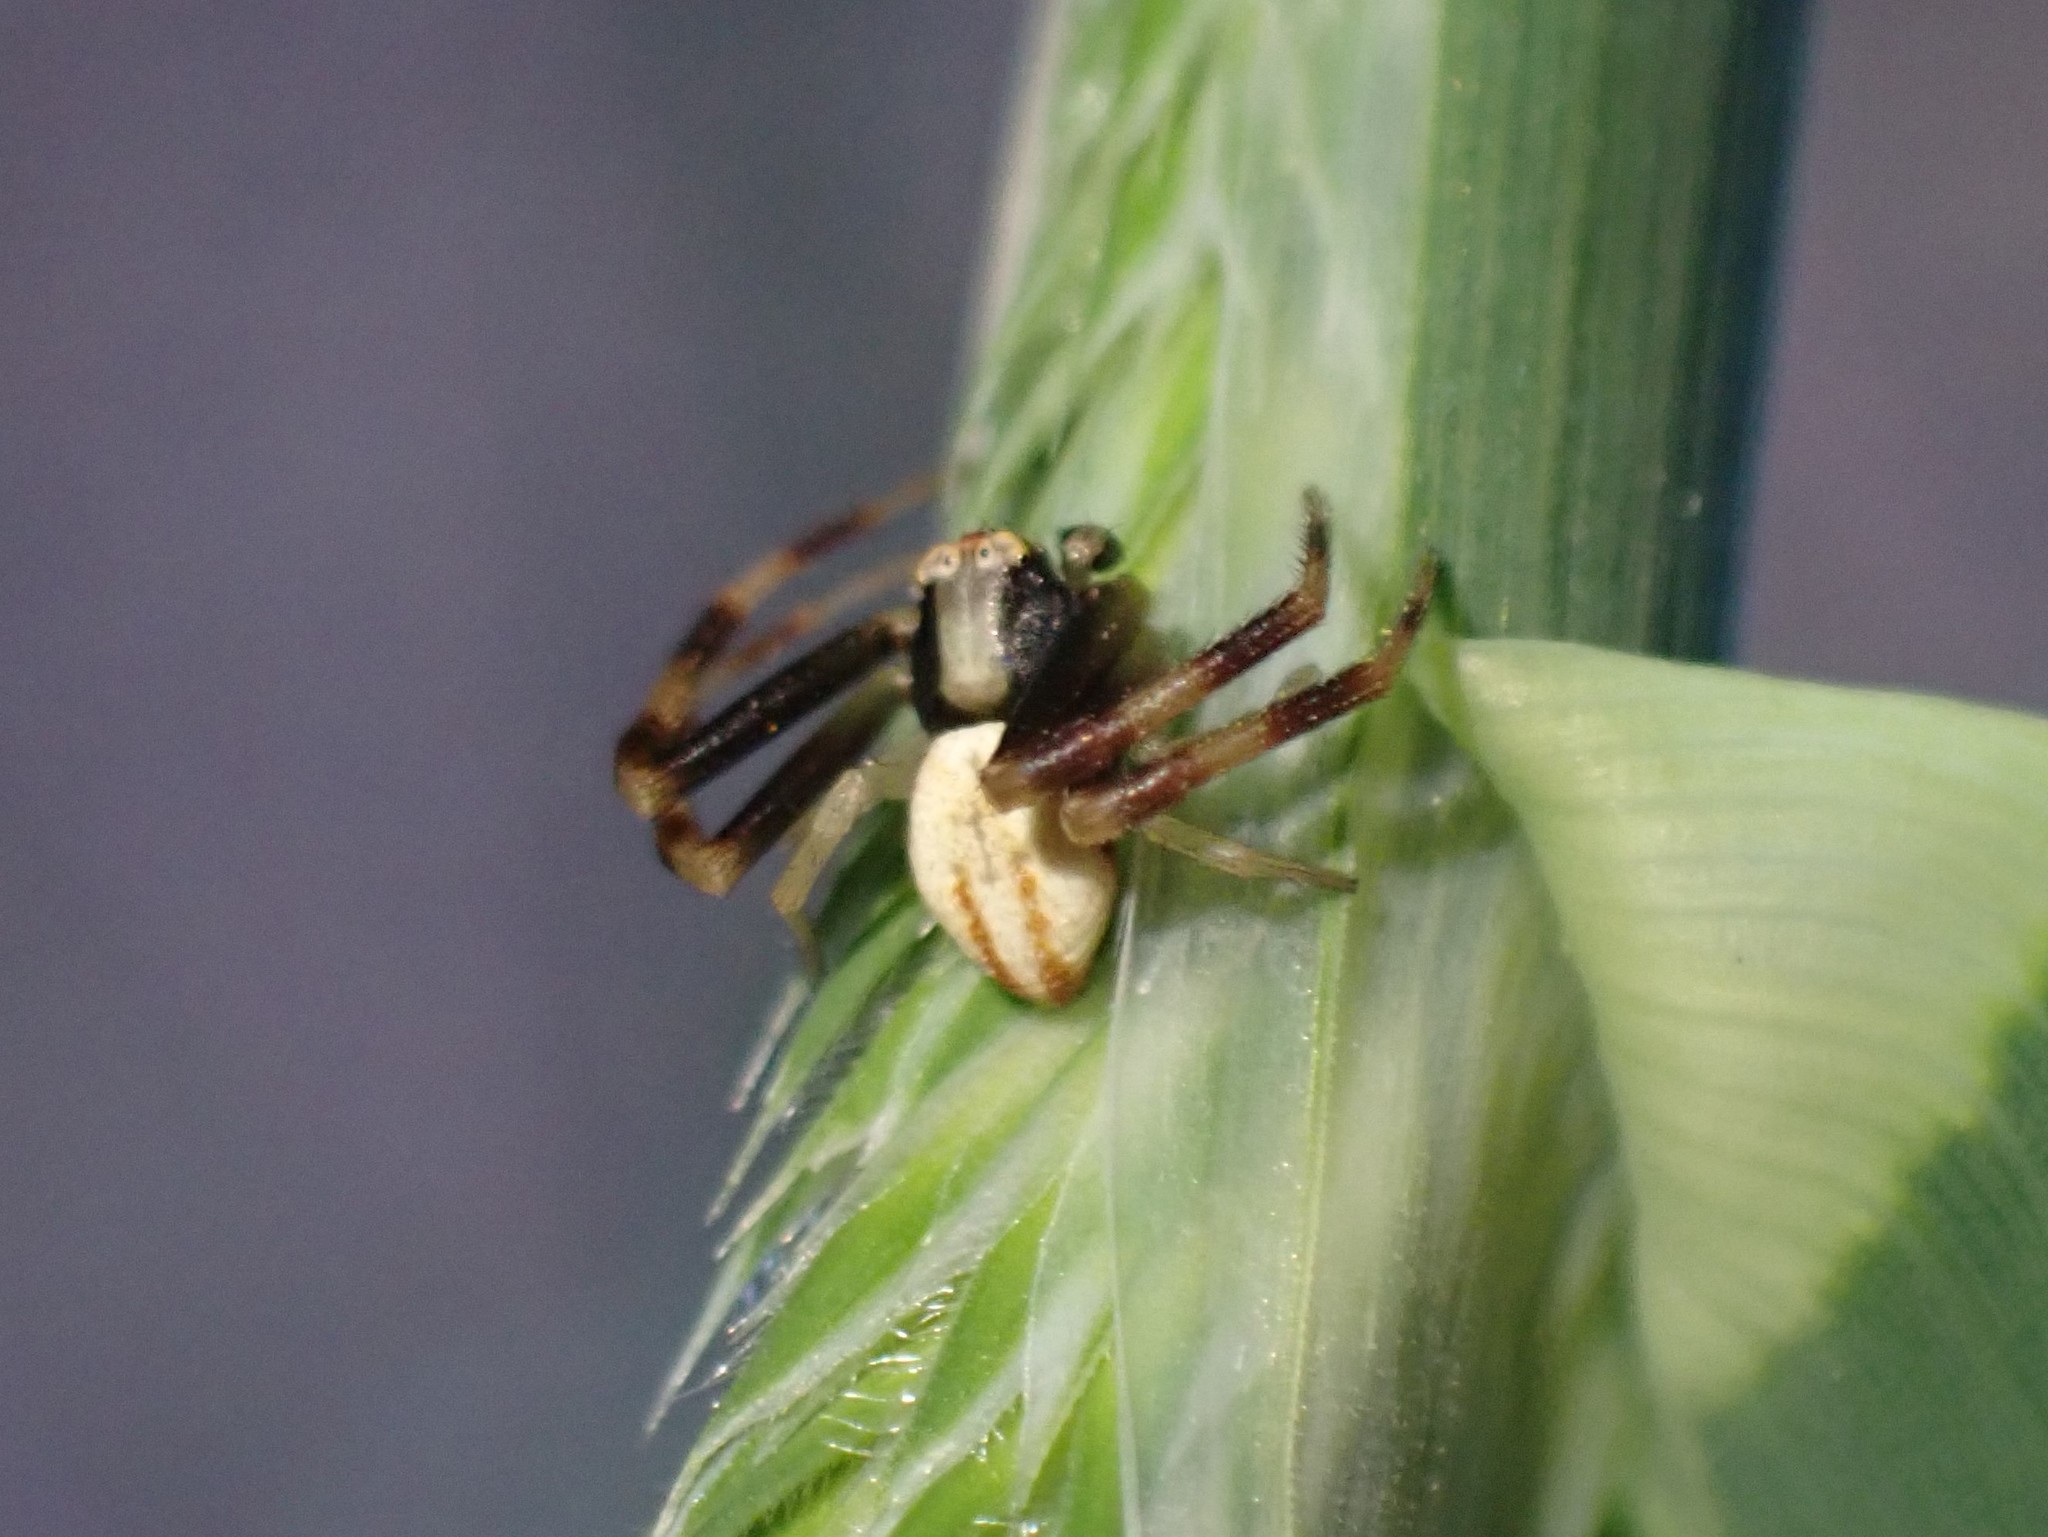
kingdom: Animalia
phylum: Arthropoda
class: Arachnida
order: Araneae
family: Thomisidae
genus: Misumena
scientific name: Misumena vatia
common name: Goldenrod crab spider
